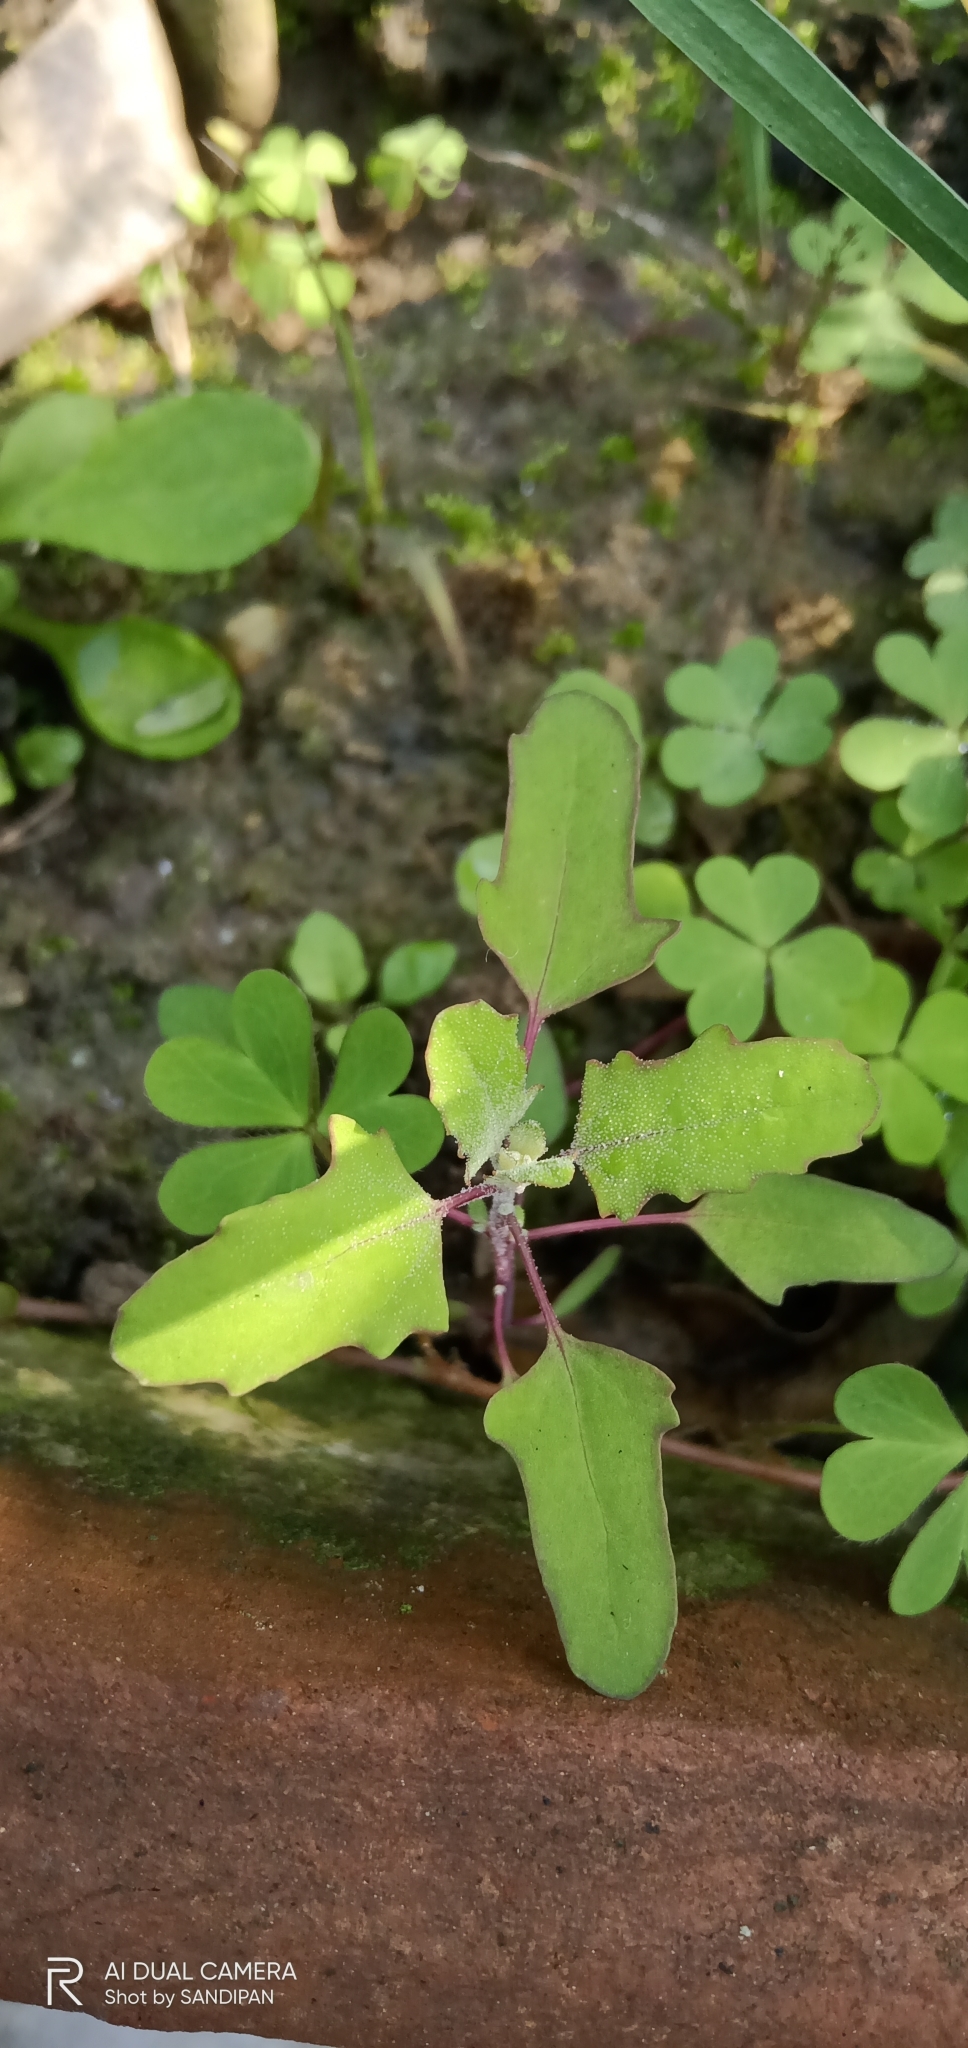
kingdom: Plantae
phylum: Tracheophyta
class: Magnoliopsida
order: Caryophyllales
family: Amaranthaceae
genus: Chenopodium
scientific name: Chenopodium ficifolium
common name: Fig-leaved goosefoot
